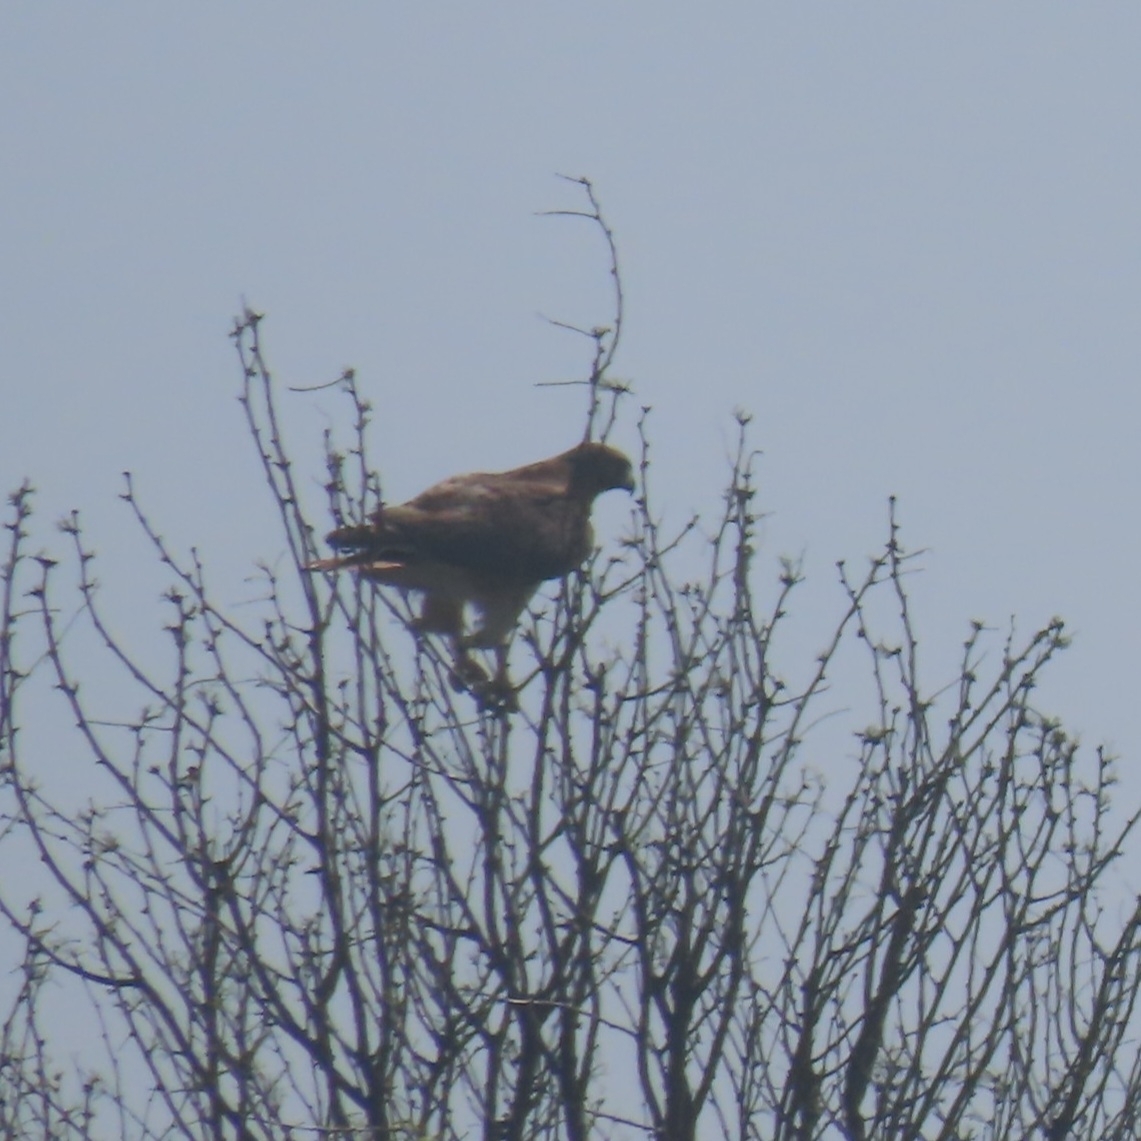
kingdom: Animalia
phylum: Chordata
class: Aves
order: Accipitriformes
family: Accipitridae
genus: Buteo
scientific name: Buteo jamaicensis
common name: Red-tailed hawk
